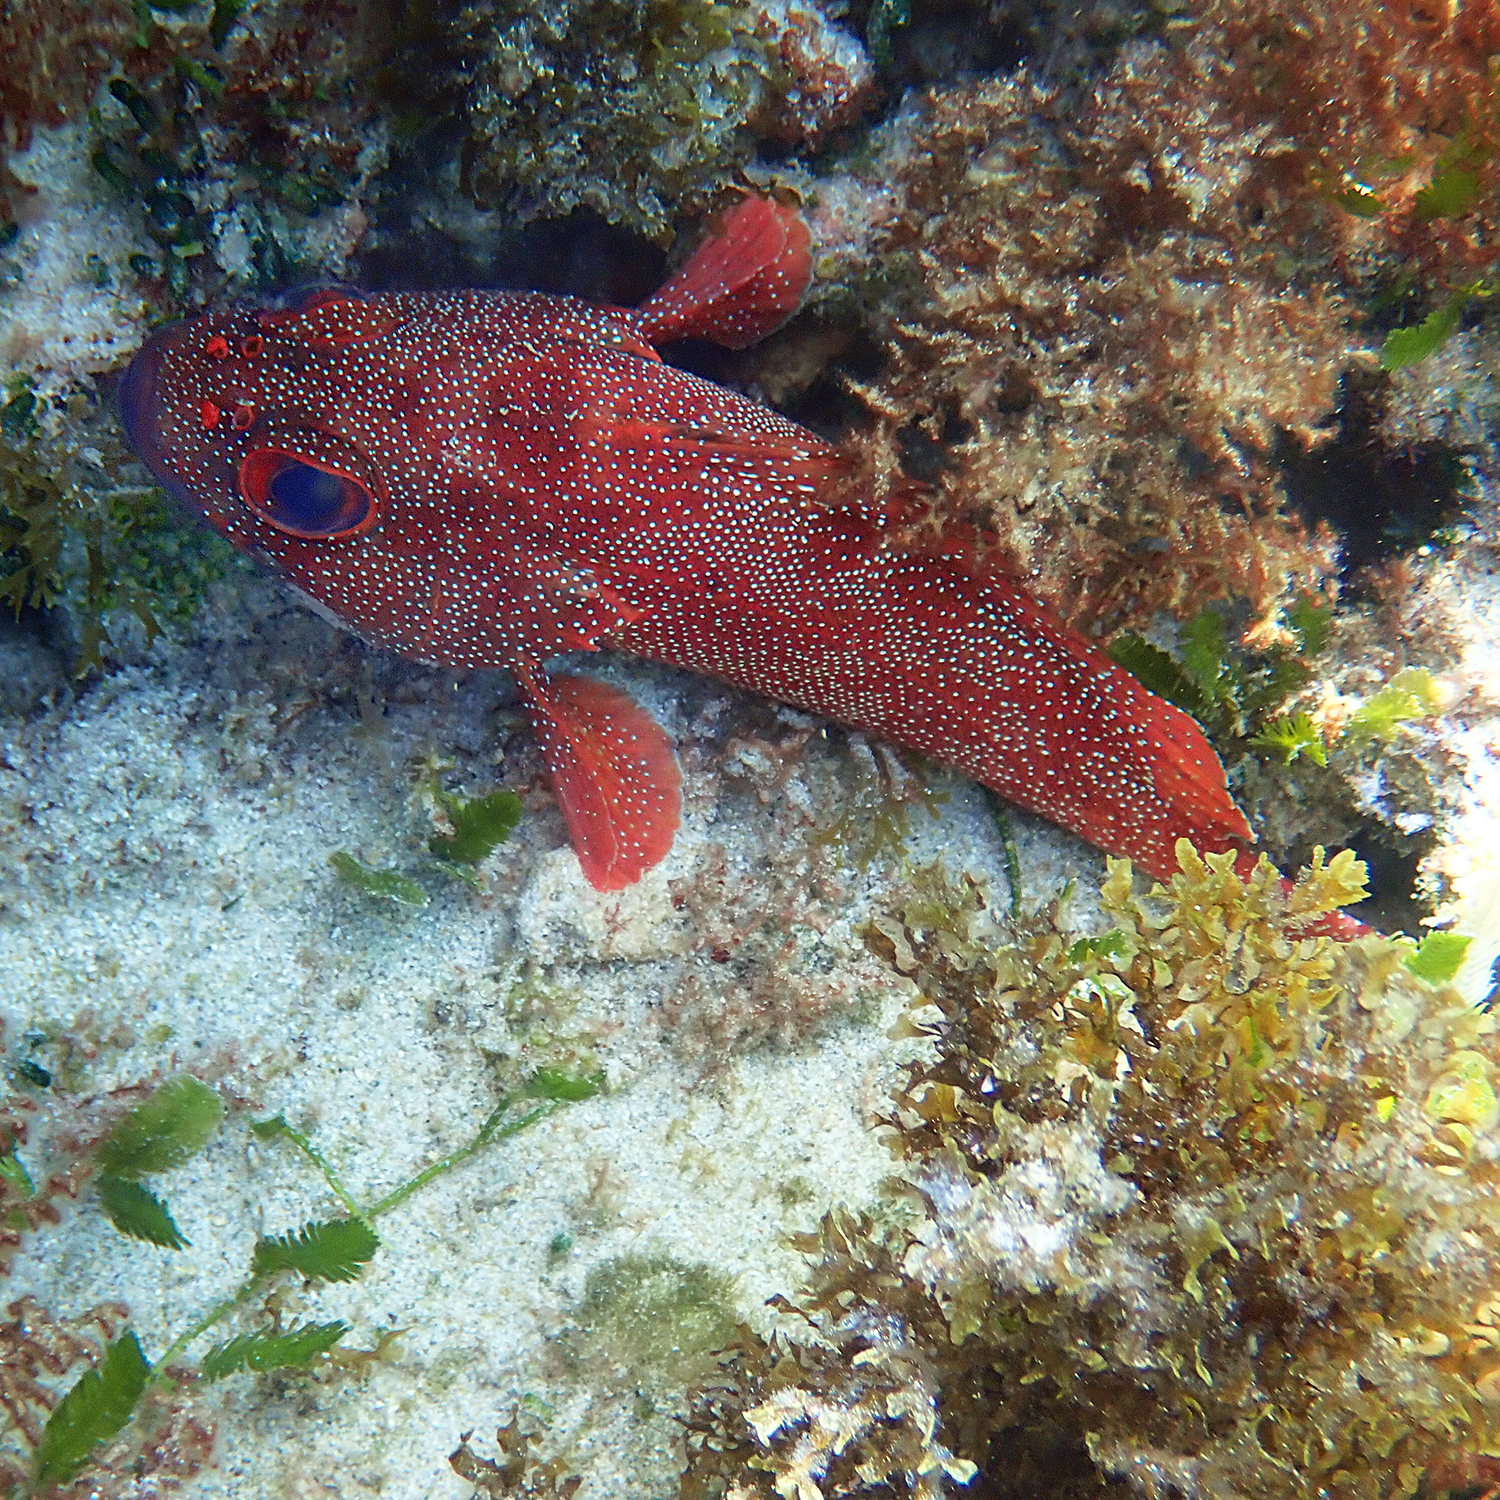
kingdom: Animalia
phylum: Chordata
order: Perciformes
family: Serranidae
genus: Trachypoma
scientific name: Trachypoma macracanthus
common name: Toadstool grouper
